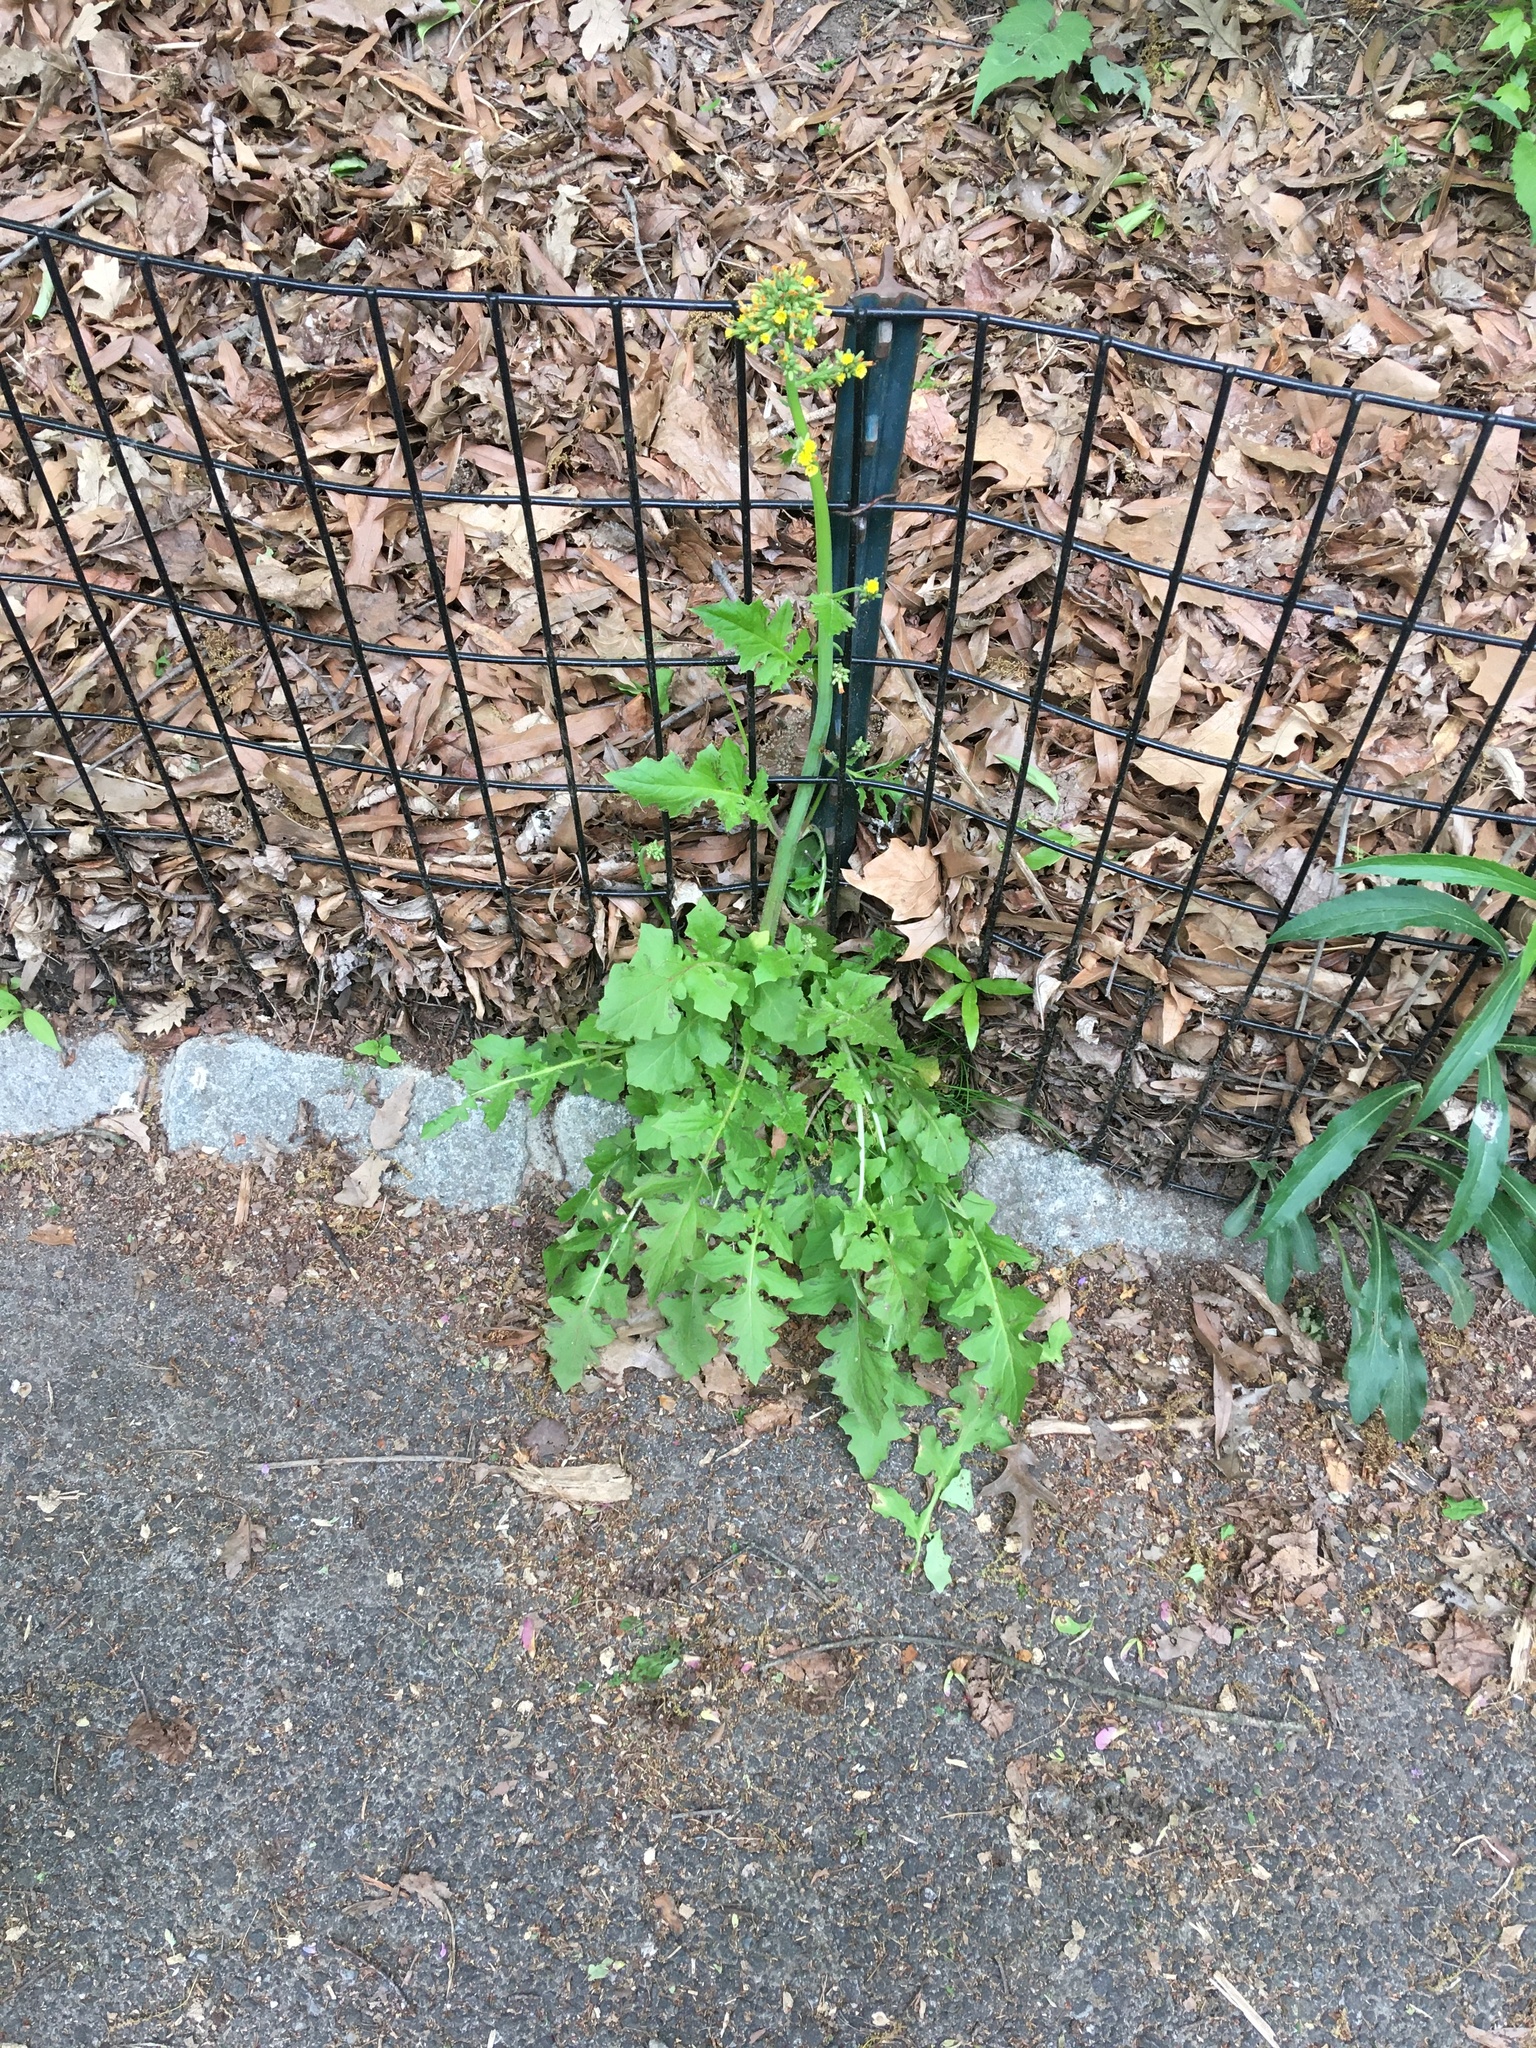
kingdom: Plantae
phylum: Tracheophyta
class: Magnoliopsida
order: Brassicales
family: Brassicaceae
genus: Sisymbrium
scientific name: Sisymbrium loeselii
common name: False london-rocket
